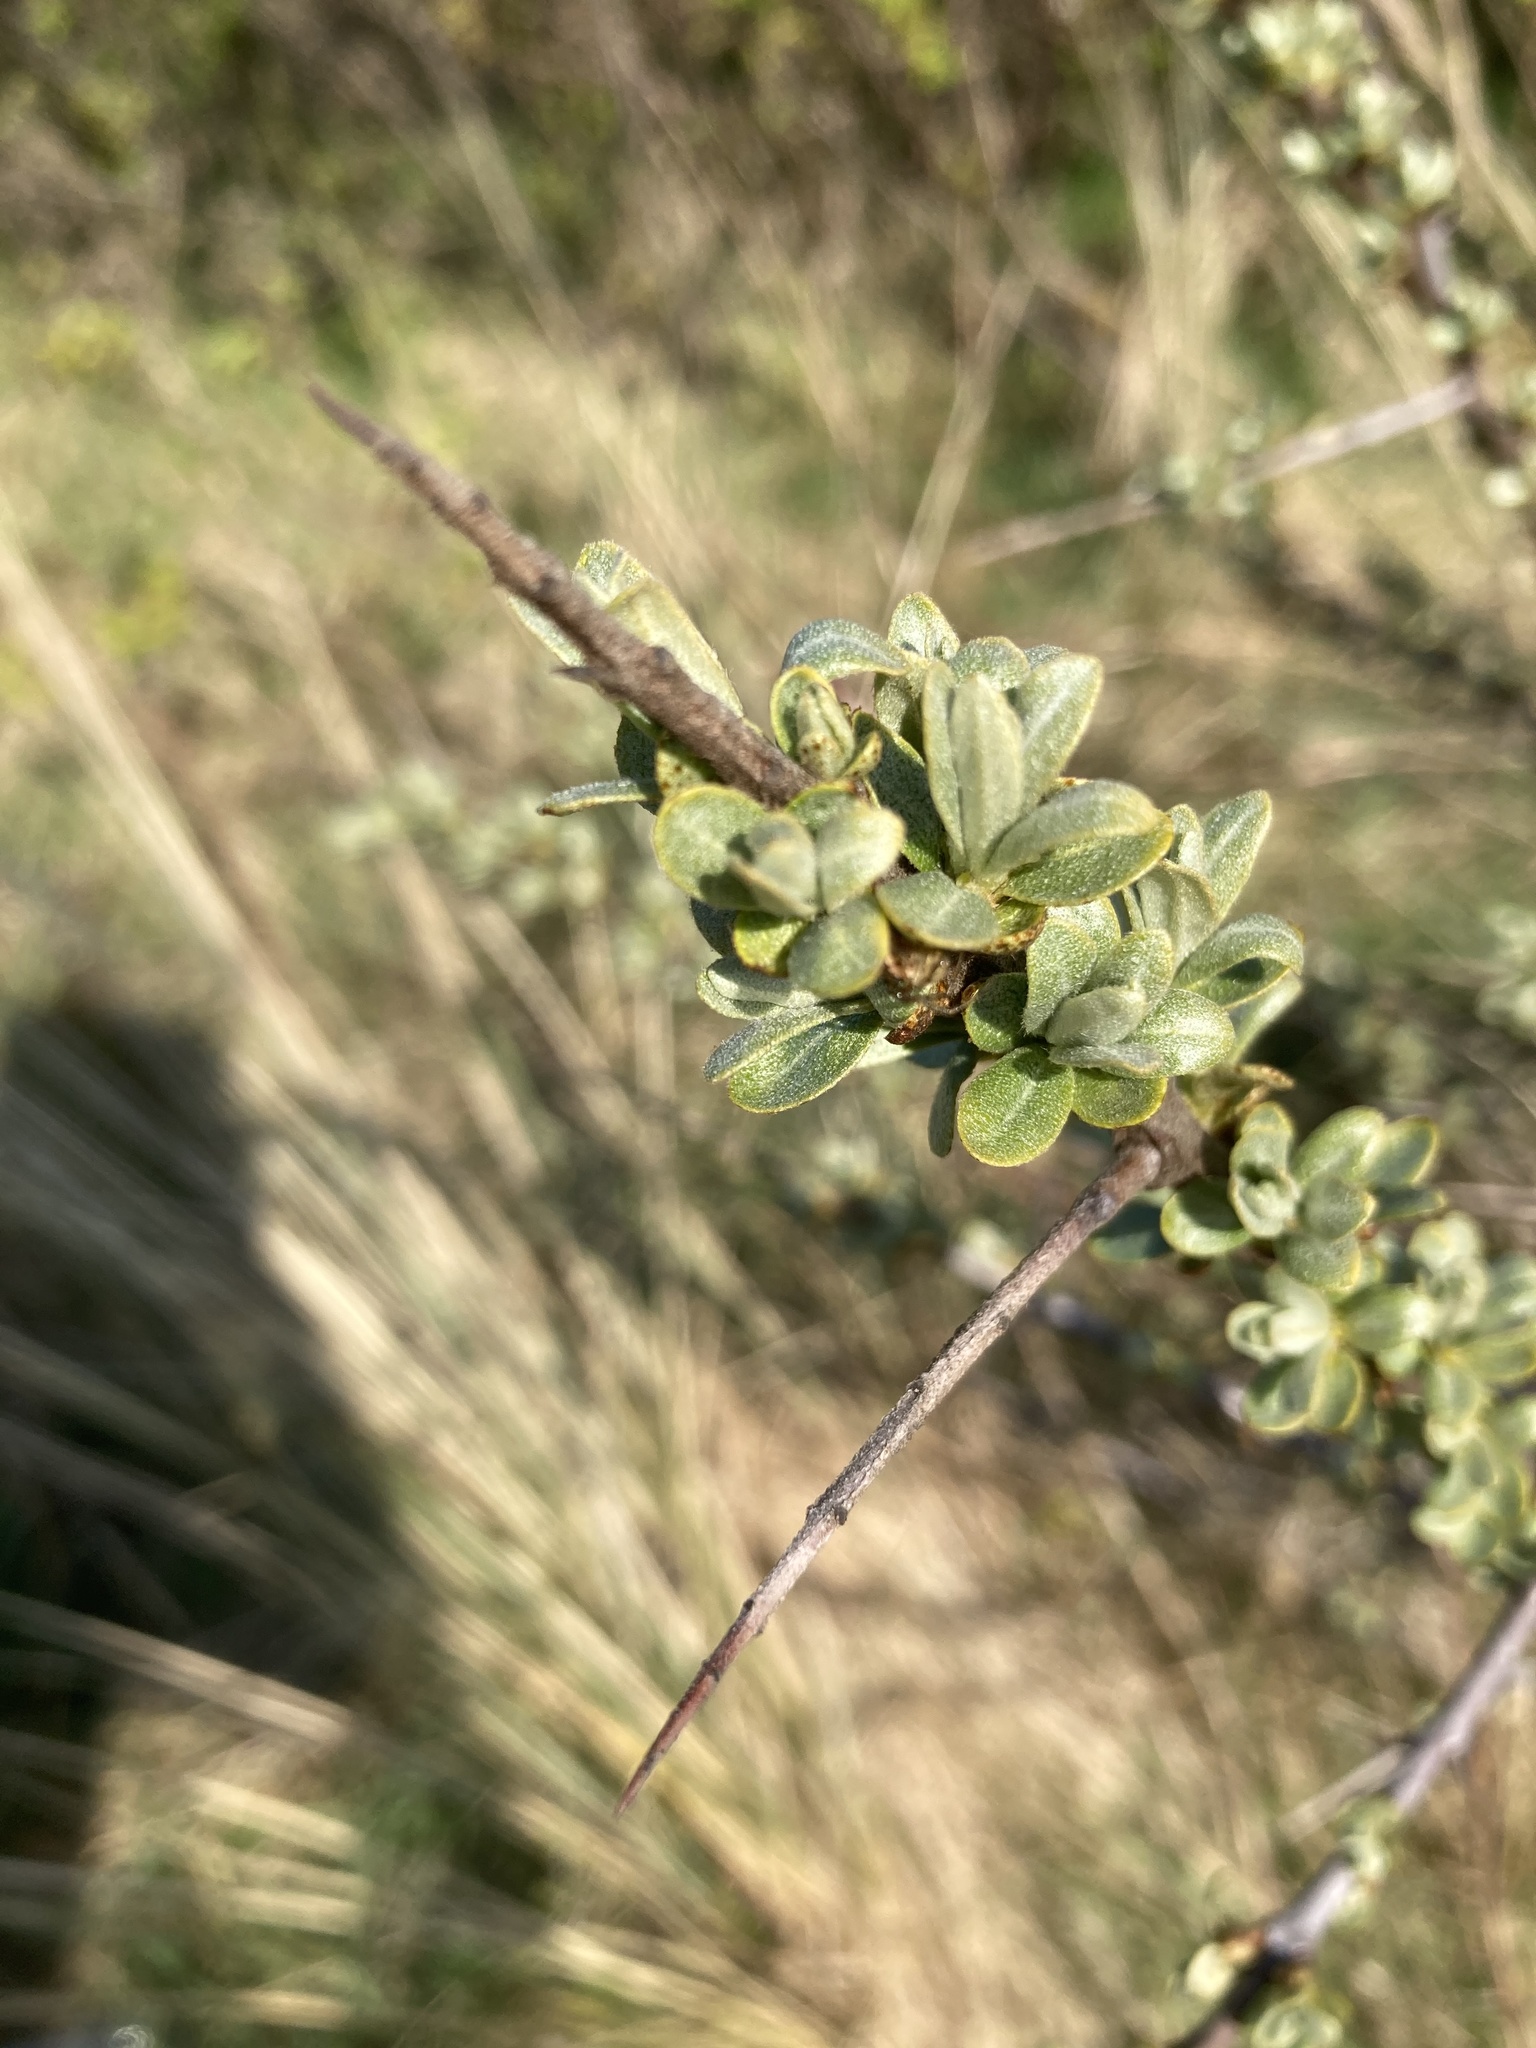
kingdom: Plantae
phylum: Tracheophyta
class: Magnoliopsida
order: Rosales
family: Elaeagnaceae
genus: Hippophae
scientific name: Hippophae rhamnoides
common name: Sea-buckthorn
